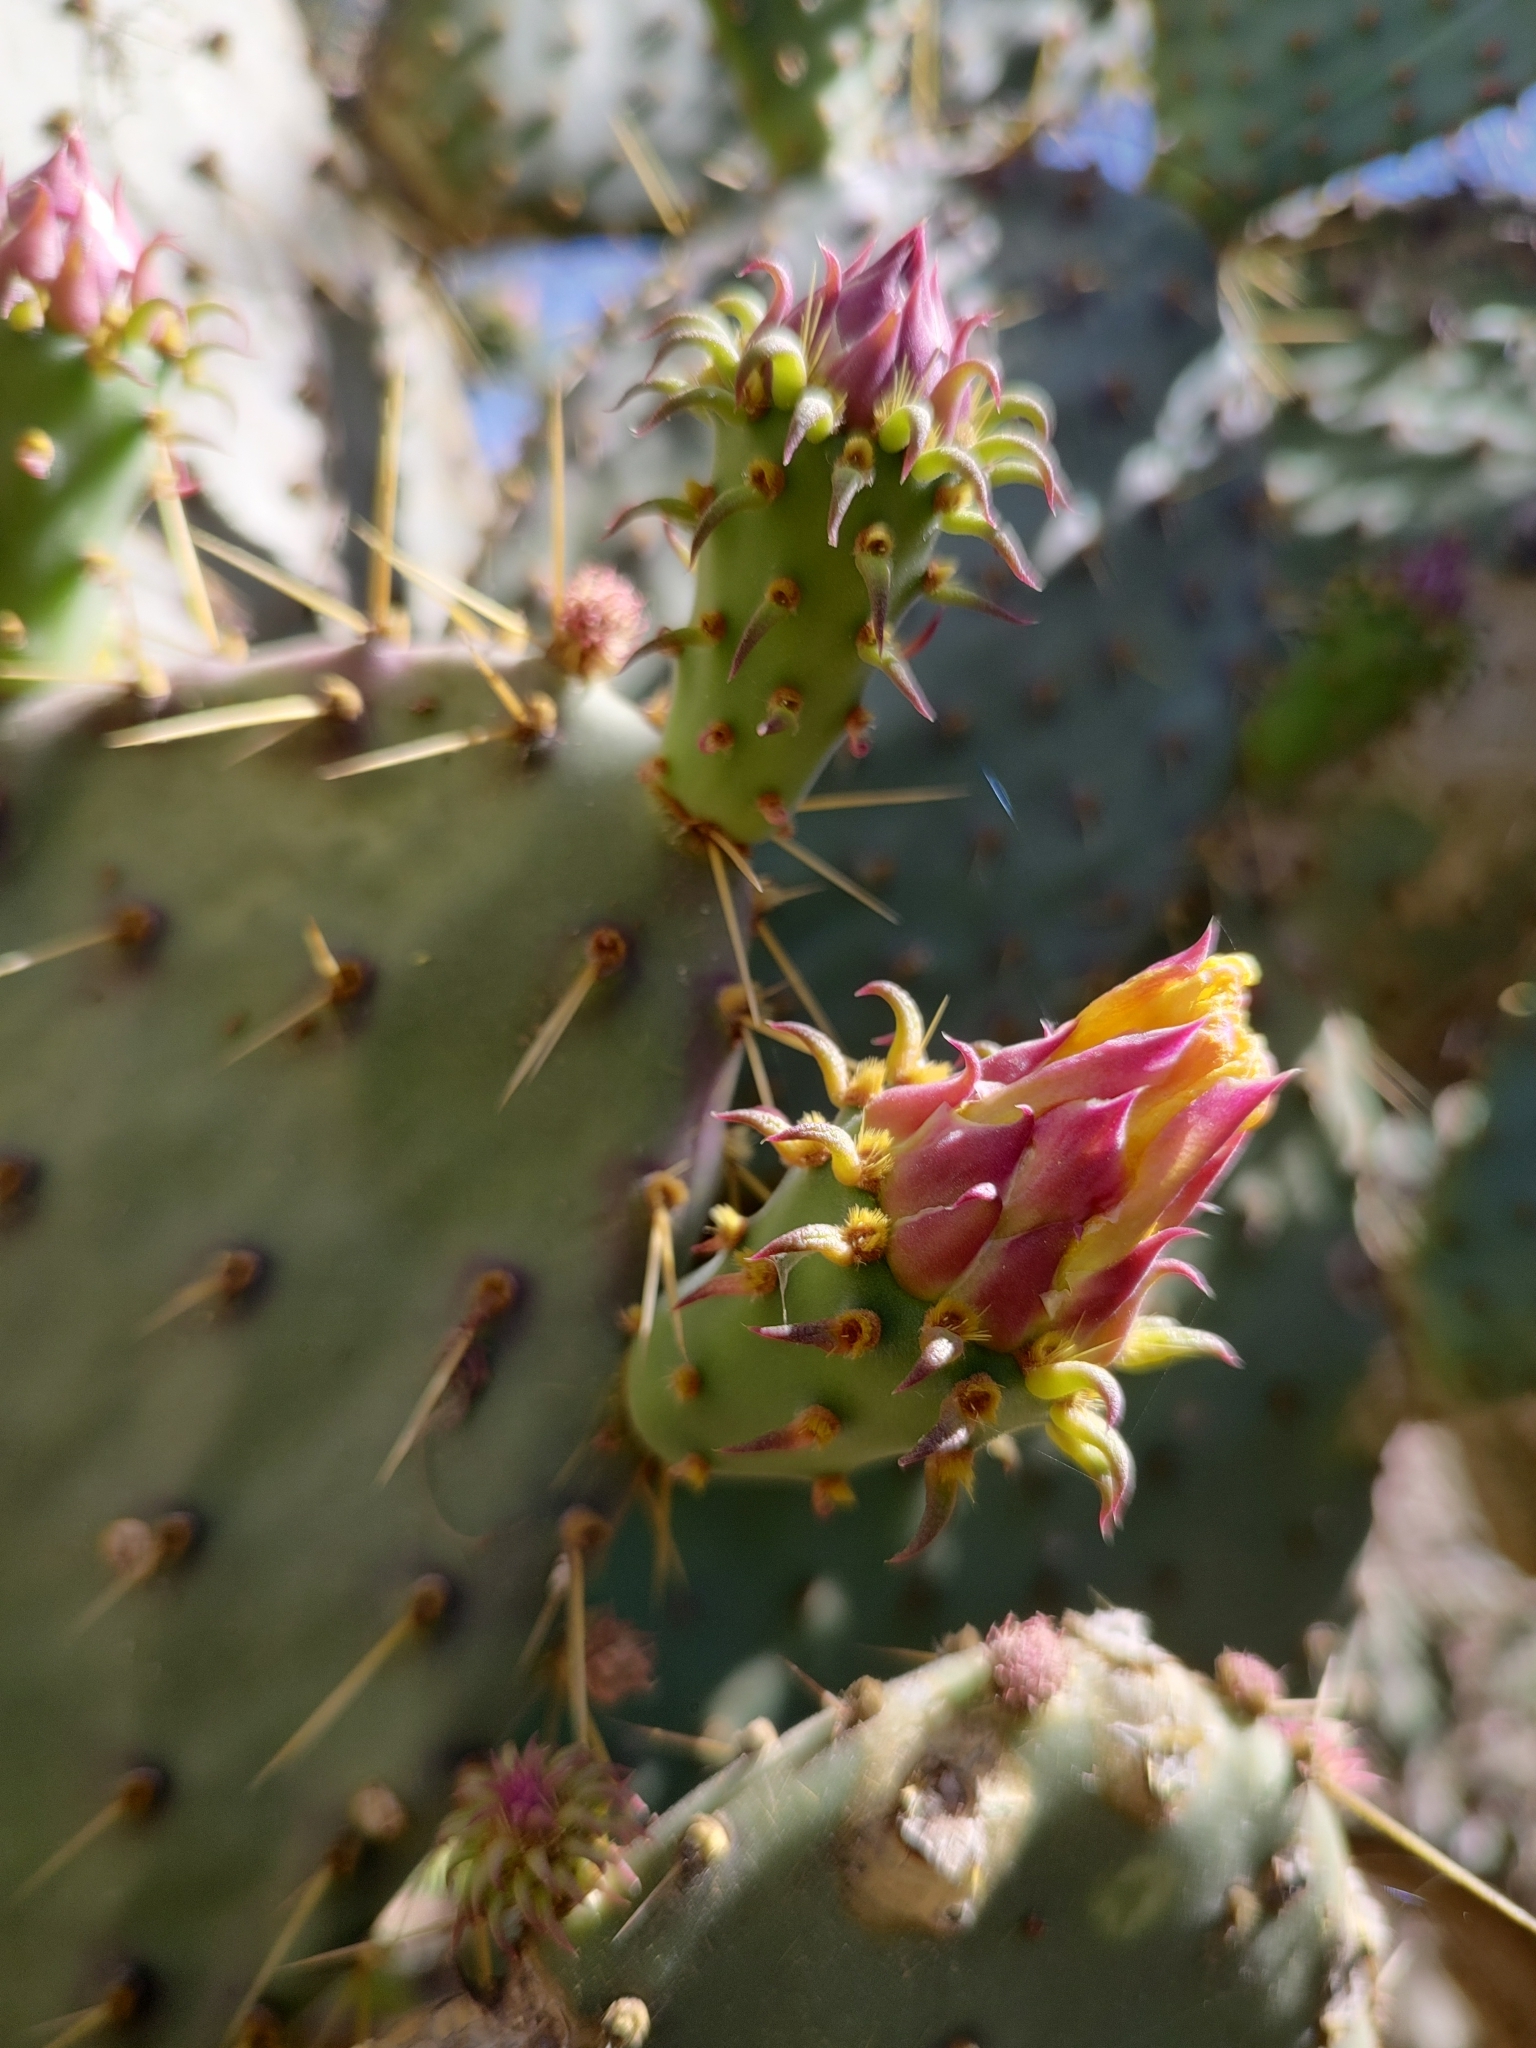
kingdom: Plantae
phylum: Tracheophyta
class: Magnoliopsida
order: Caryophyllales
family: Cactaceae
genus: Opuntia
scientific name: Opuntia caboensis
